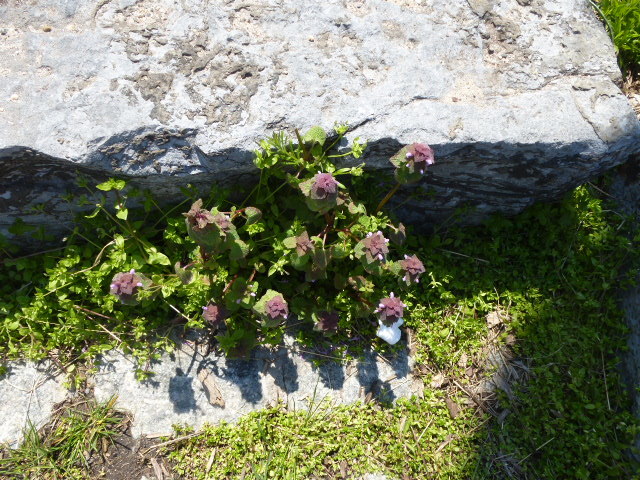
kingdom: Plantae
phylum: Tracheophyta
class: Magnoliopsida
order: Lamiales
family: Lamiaceae
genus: Lamium
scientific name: Lamium purpureum
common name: Red dead-nettle
